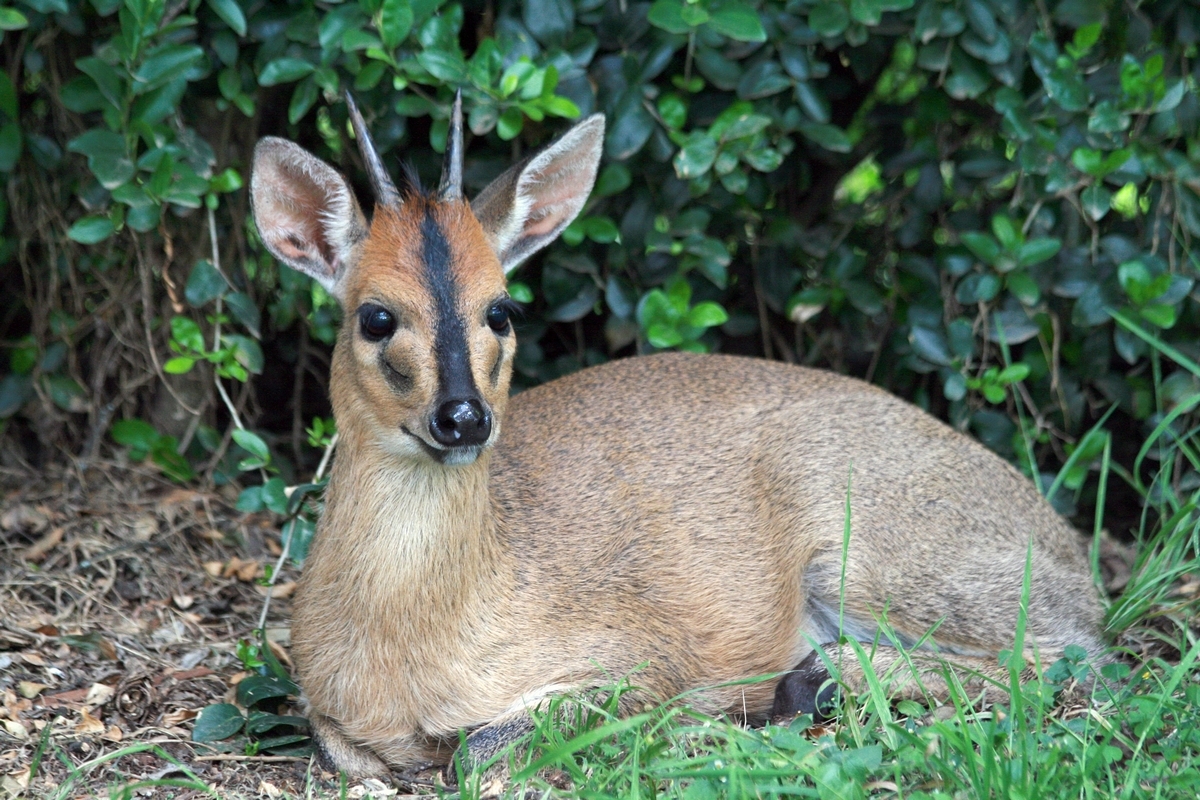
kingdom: Animalia
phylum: Chordata
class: Mammalia
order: Artiodactyla
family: Bovidae
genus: Sylvicapra
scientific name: Sylvicapra grimmia
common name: Bush duiker
